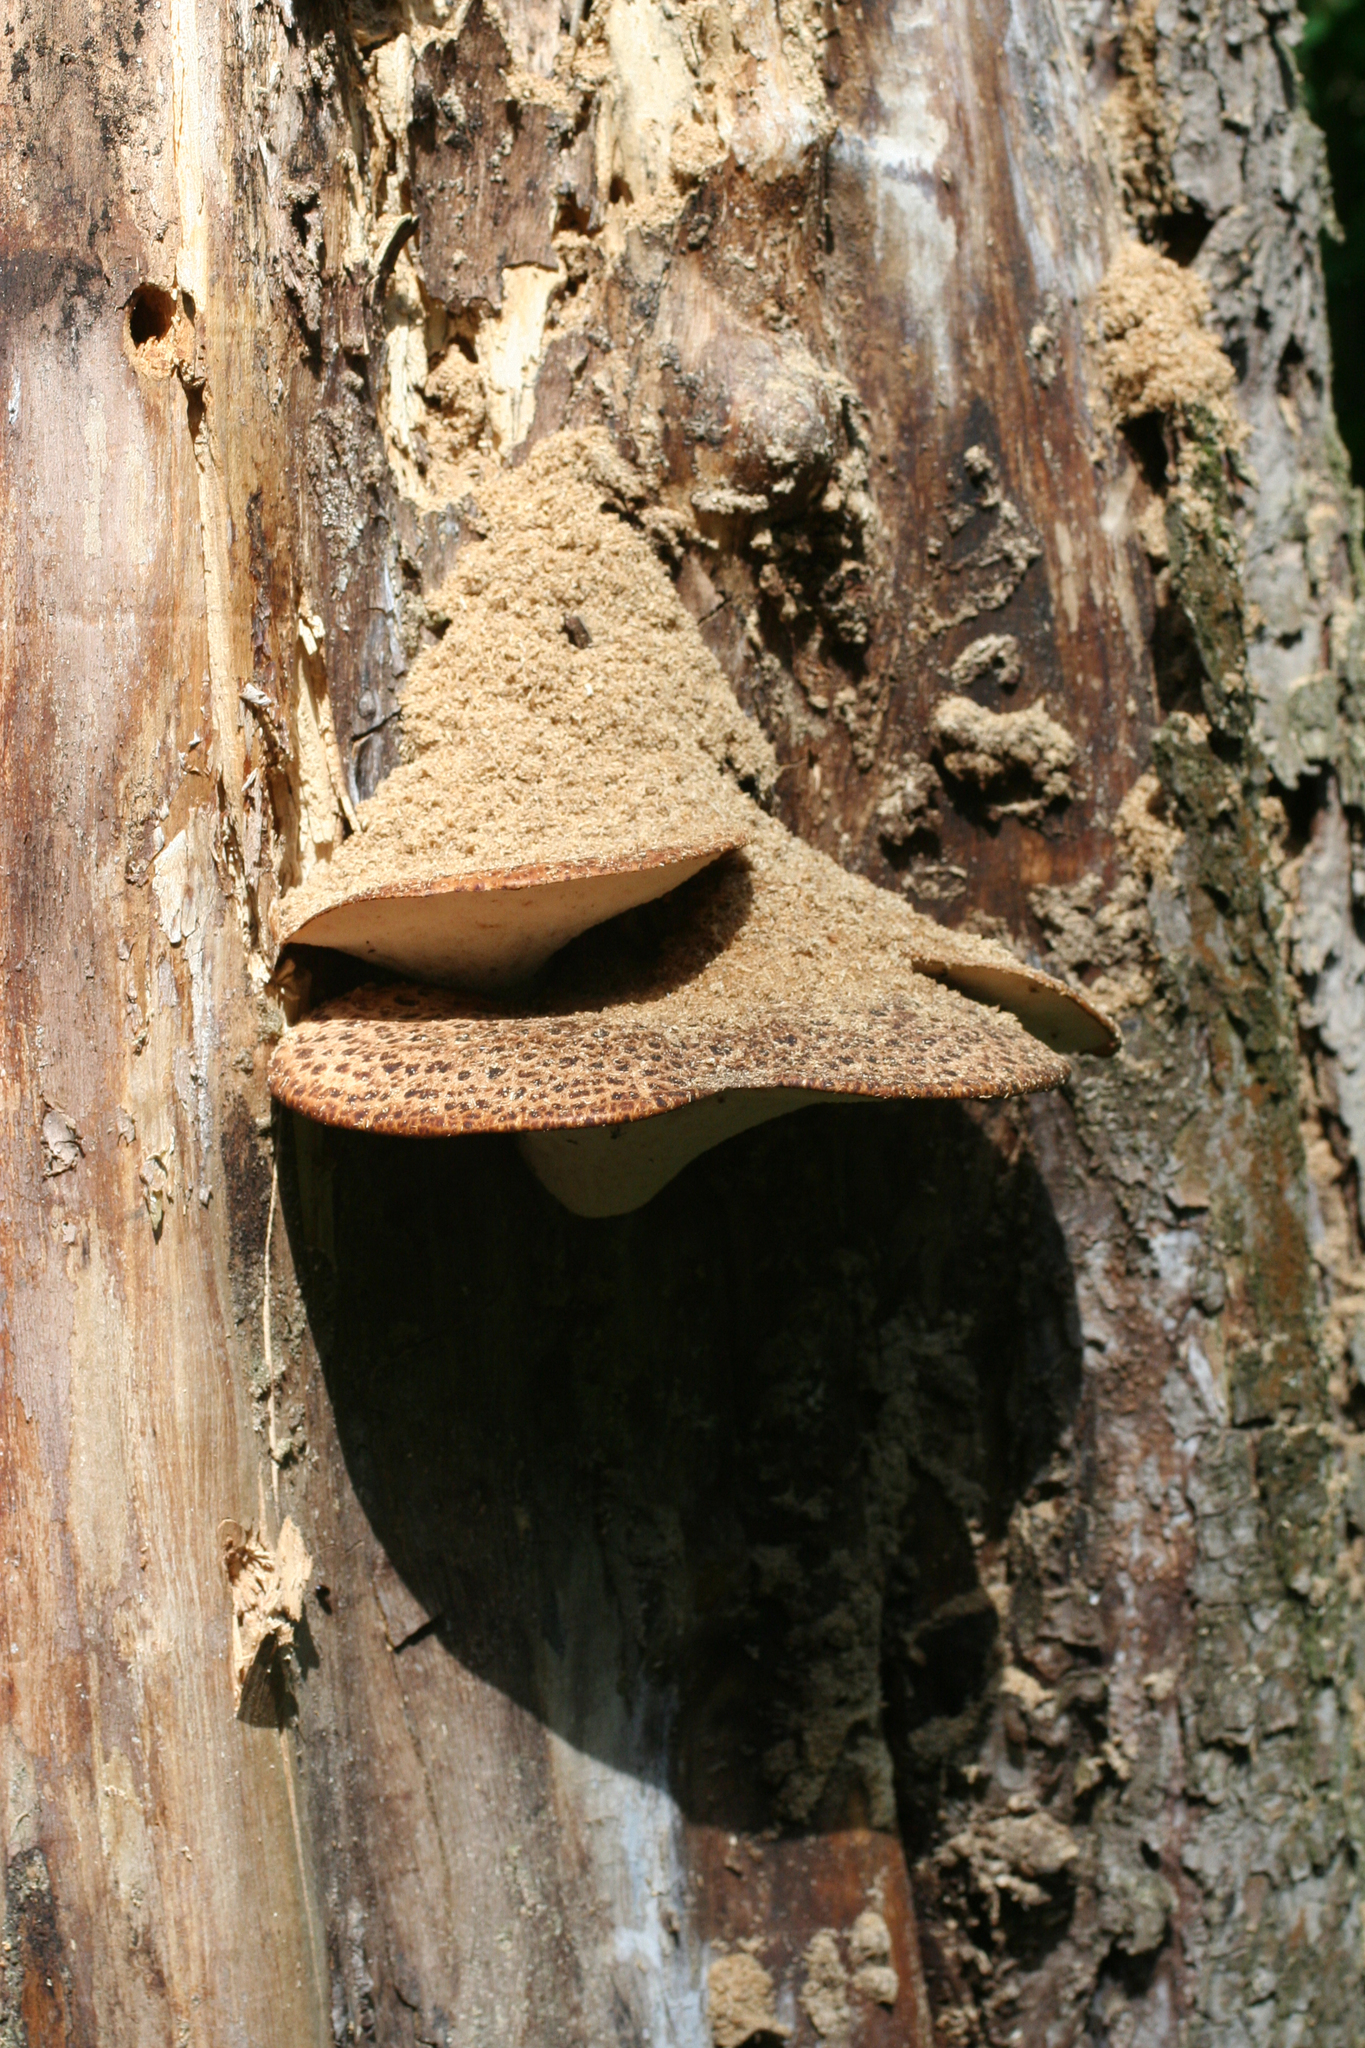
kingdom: Fungi
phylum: Basidiomycota
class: Agaricomycetes
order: Polyporales
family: Polyporaceae
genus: Cerioporus
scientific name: Cerioporus squamosus
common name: Dryad's saddle
